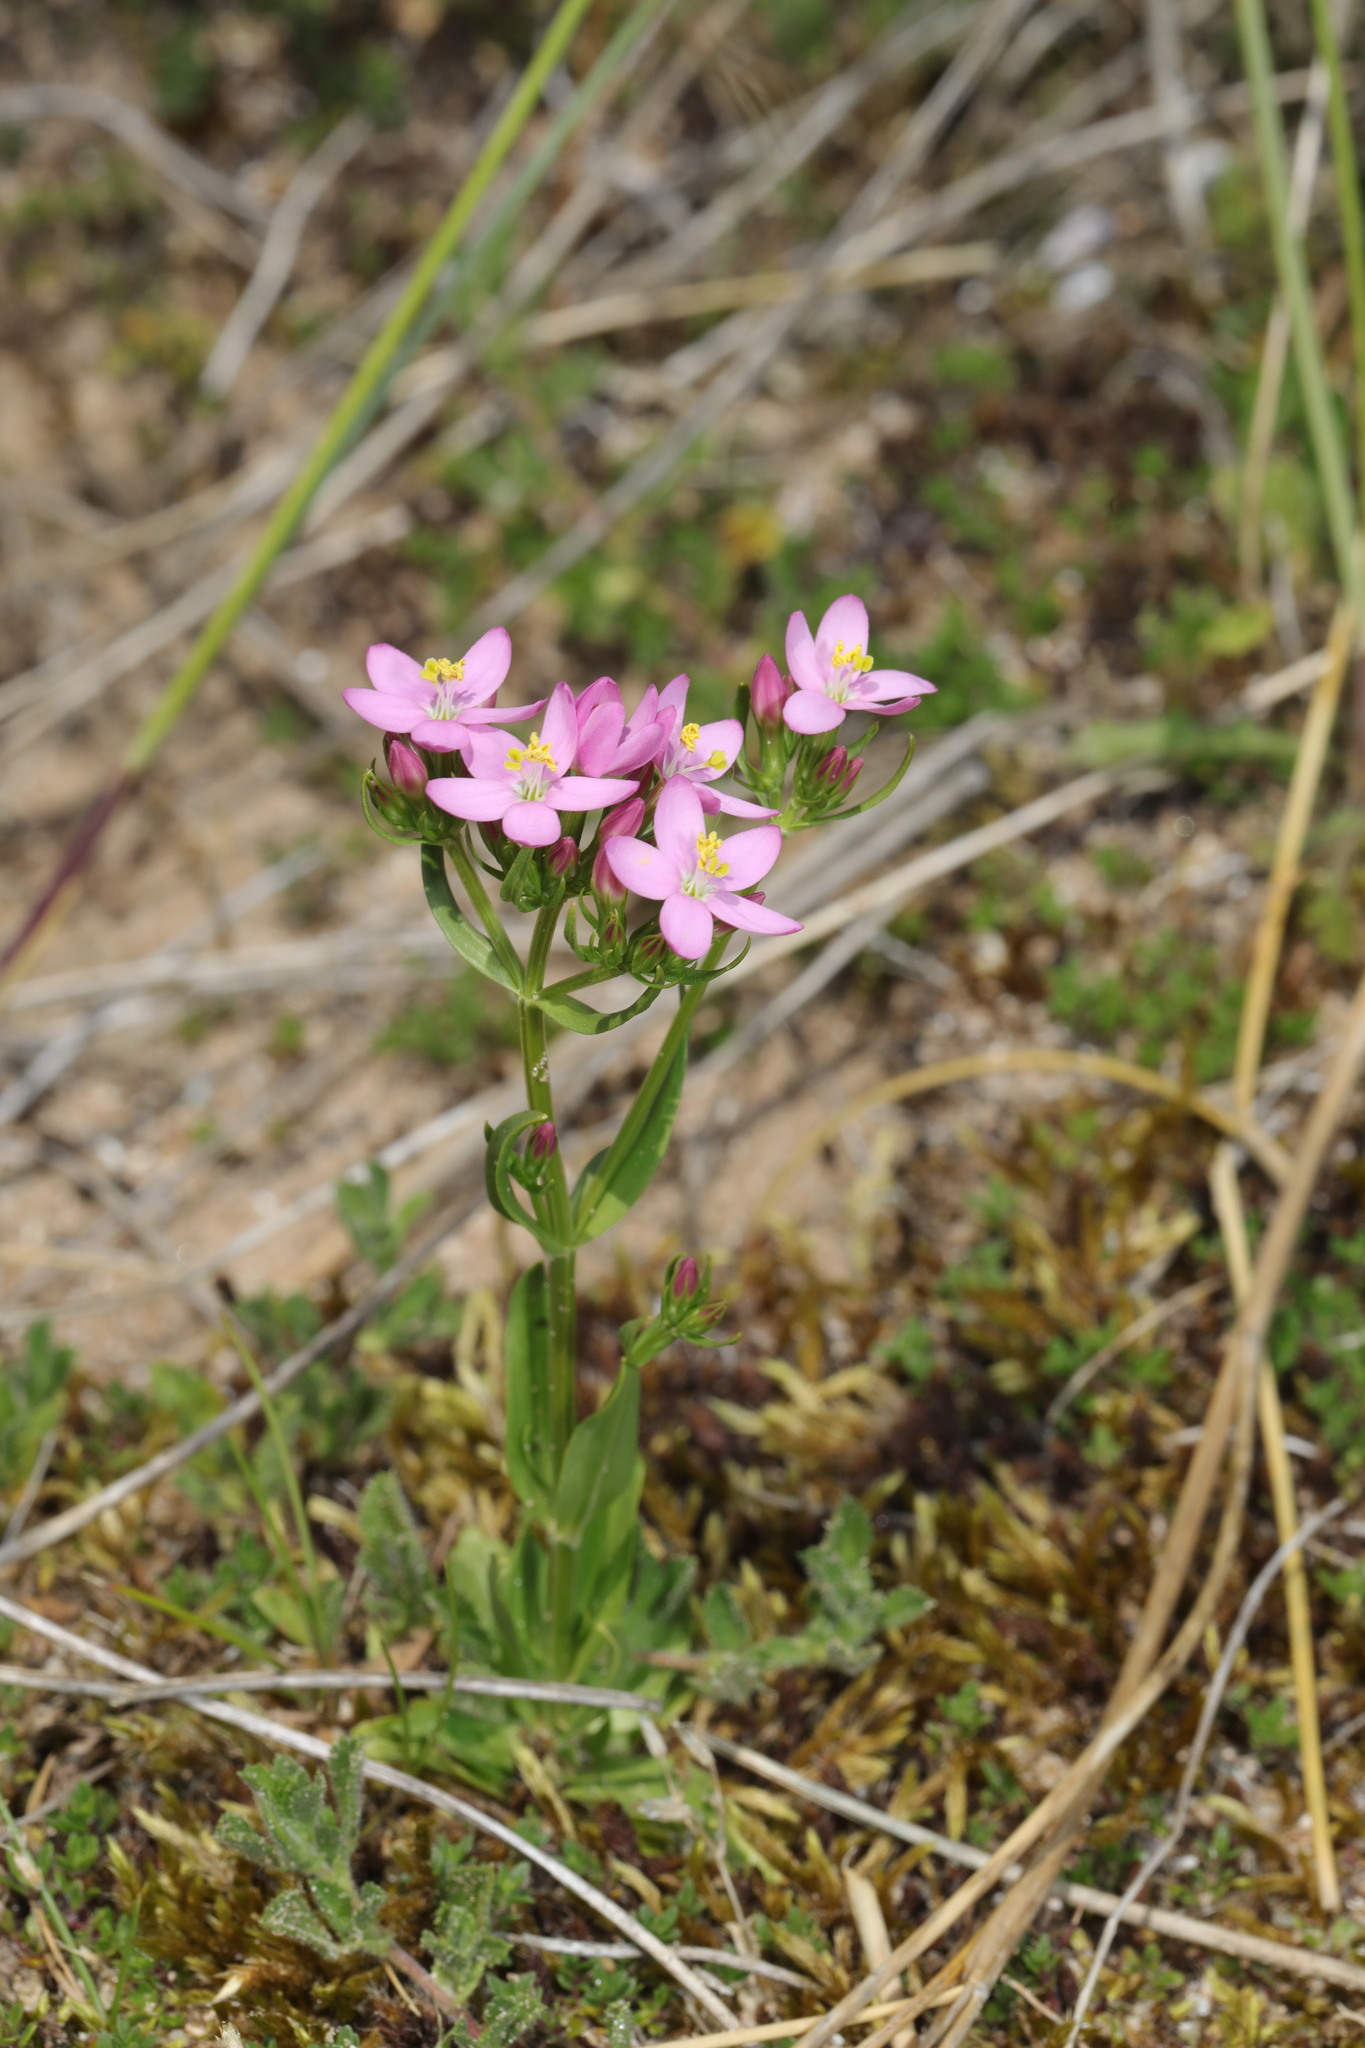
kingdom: Plantae
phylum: Tracheophyta
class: Magnoliopsida
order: Gentianales
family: Gentianaceae
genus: Centaurium
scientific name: Centaurium erythraea
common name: Common centaury
